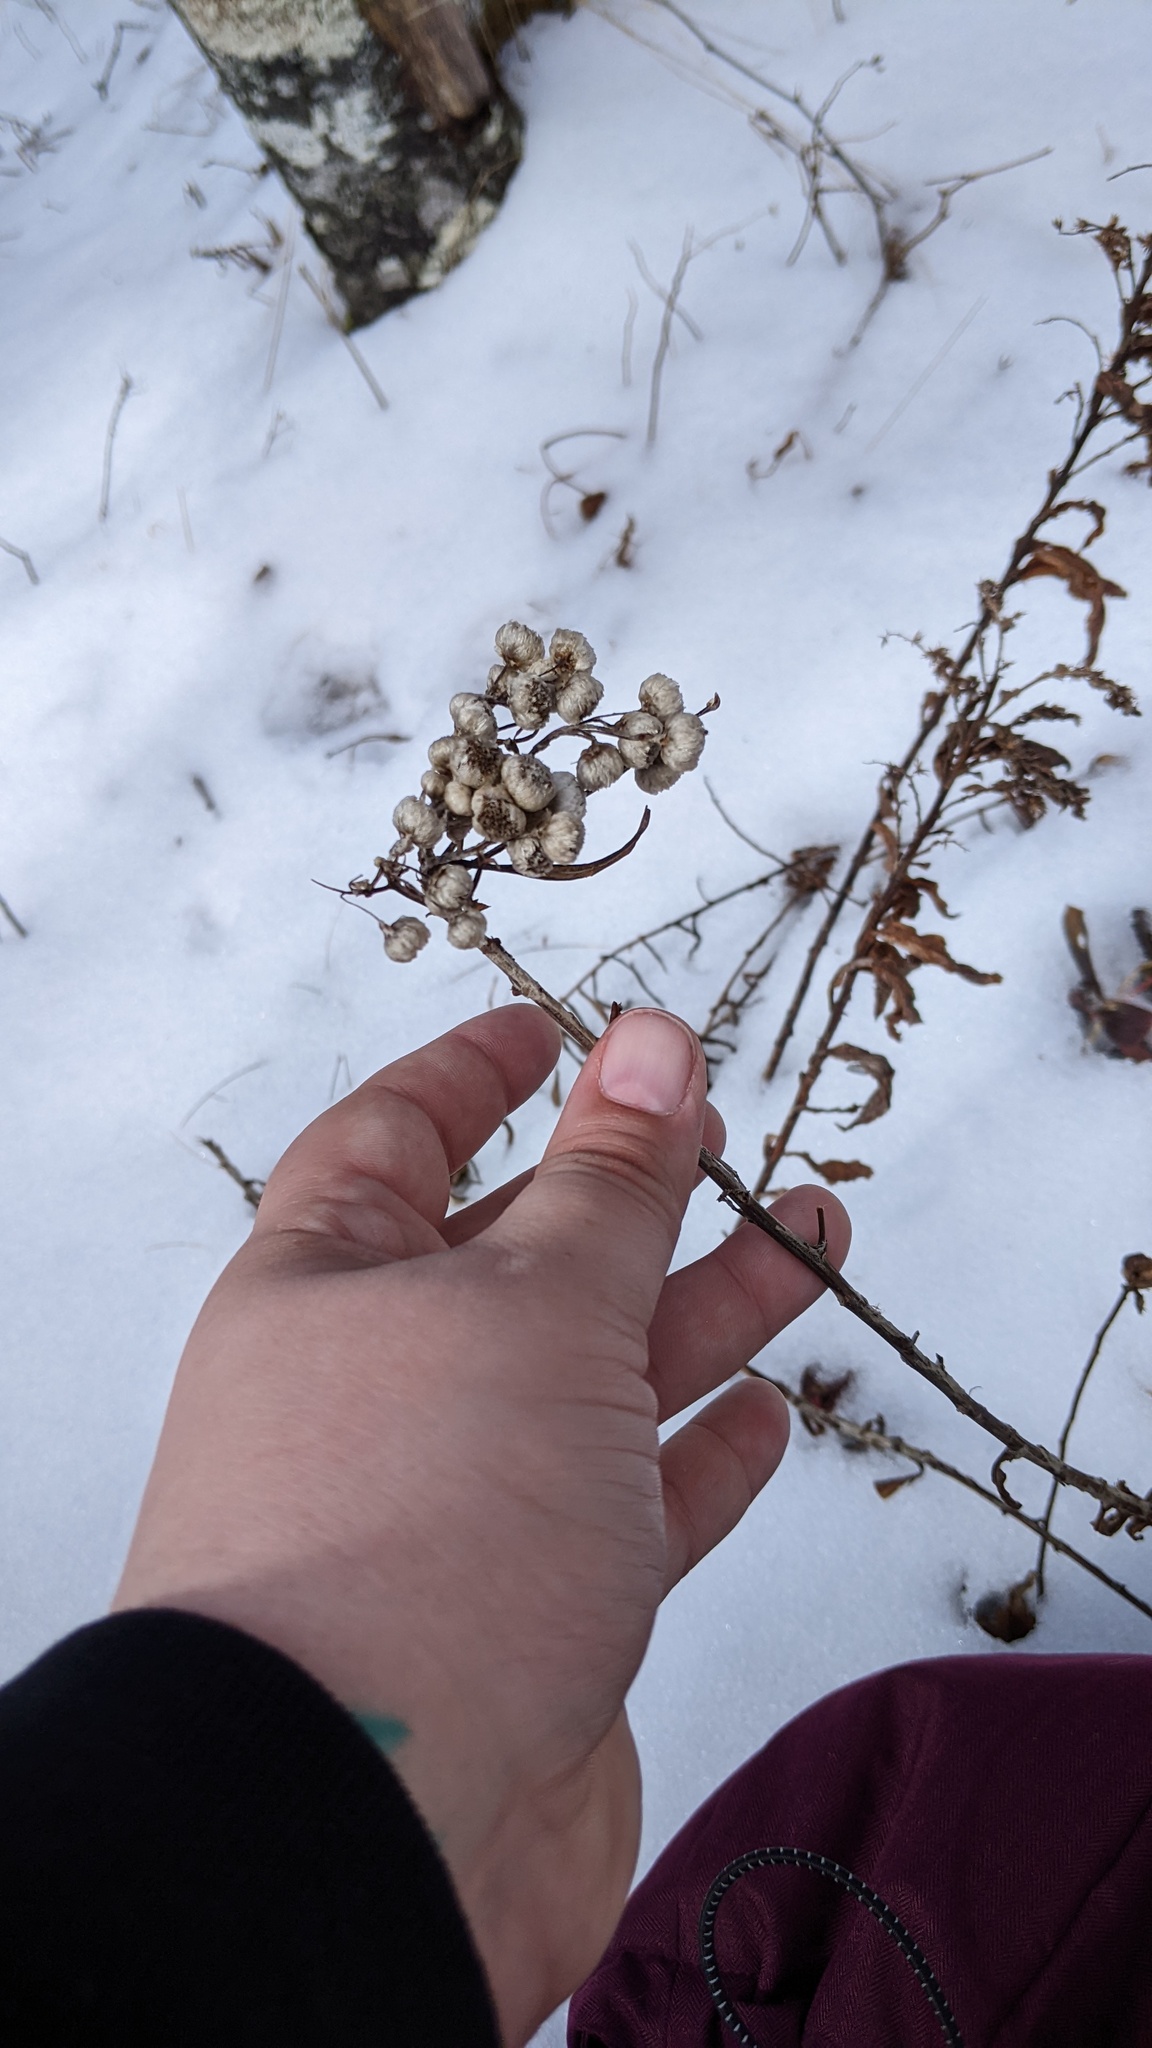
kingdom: Plantae
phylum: Tracheophyta
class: Magnoliopsida
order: Asterales
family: Asteraceae
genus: Anaphalis
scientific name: Anaphalis margaritacea
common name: Pearly everlasting
